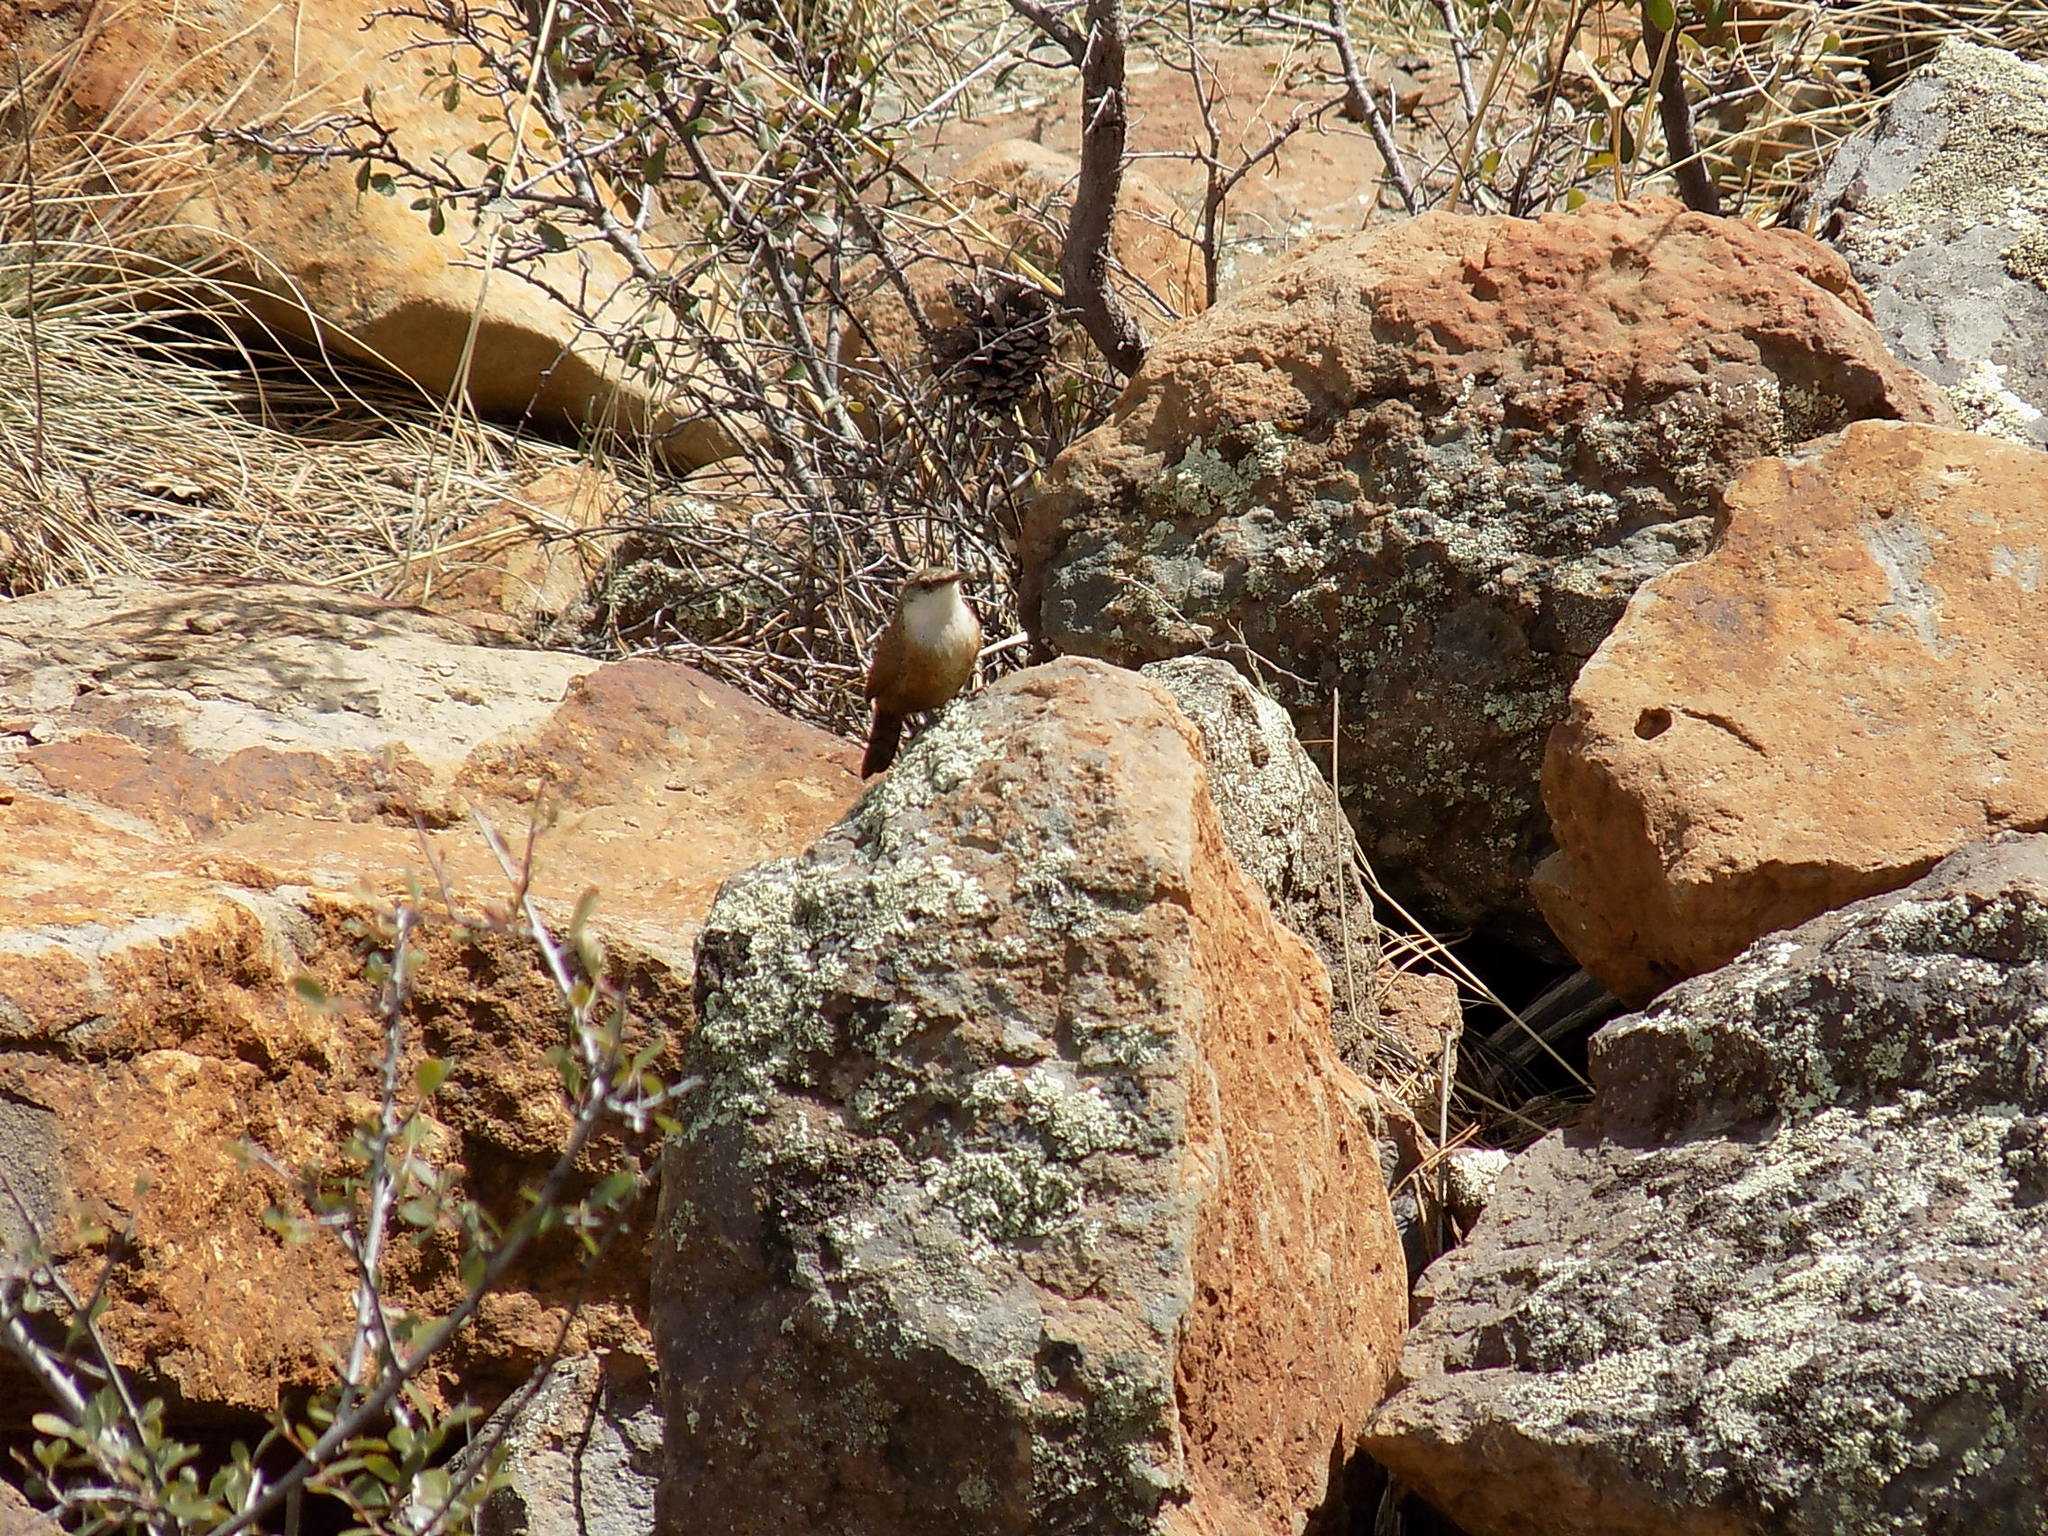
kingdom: Animalia
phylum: Chordata
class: Aves
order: Passeriformes
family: Troglodytidae
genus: Catherpes
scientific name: Catherpes mexicanus
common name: Canyon wren
